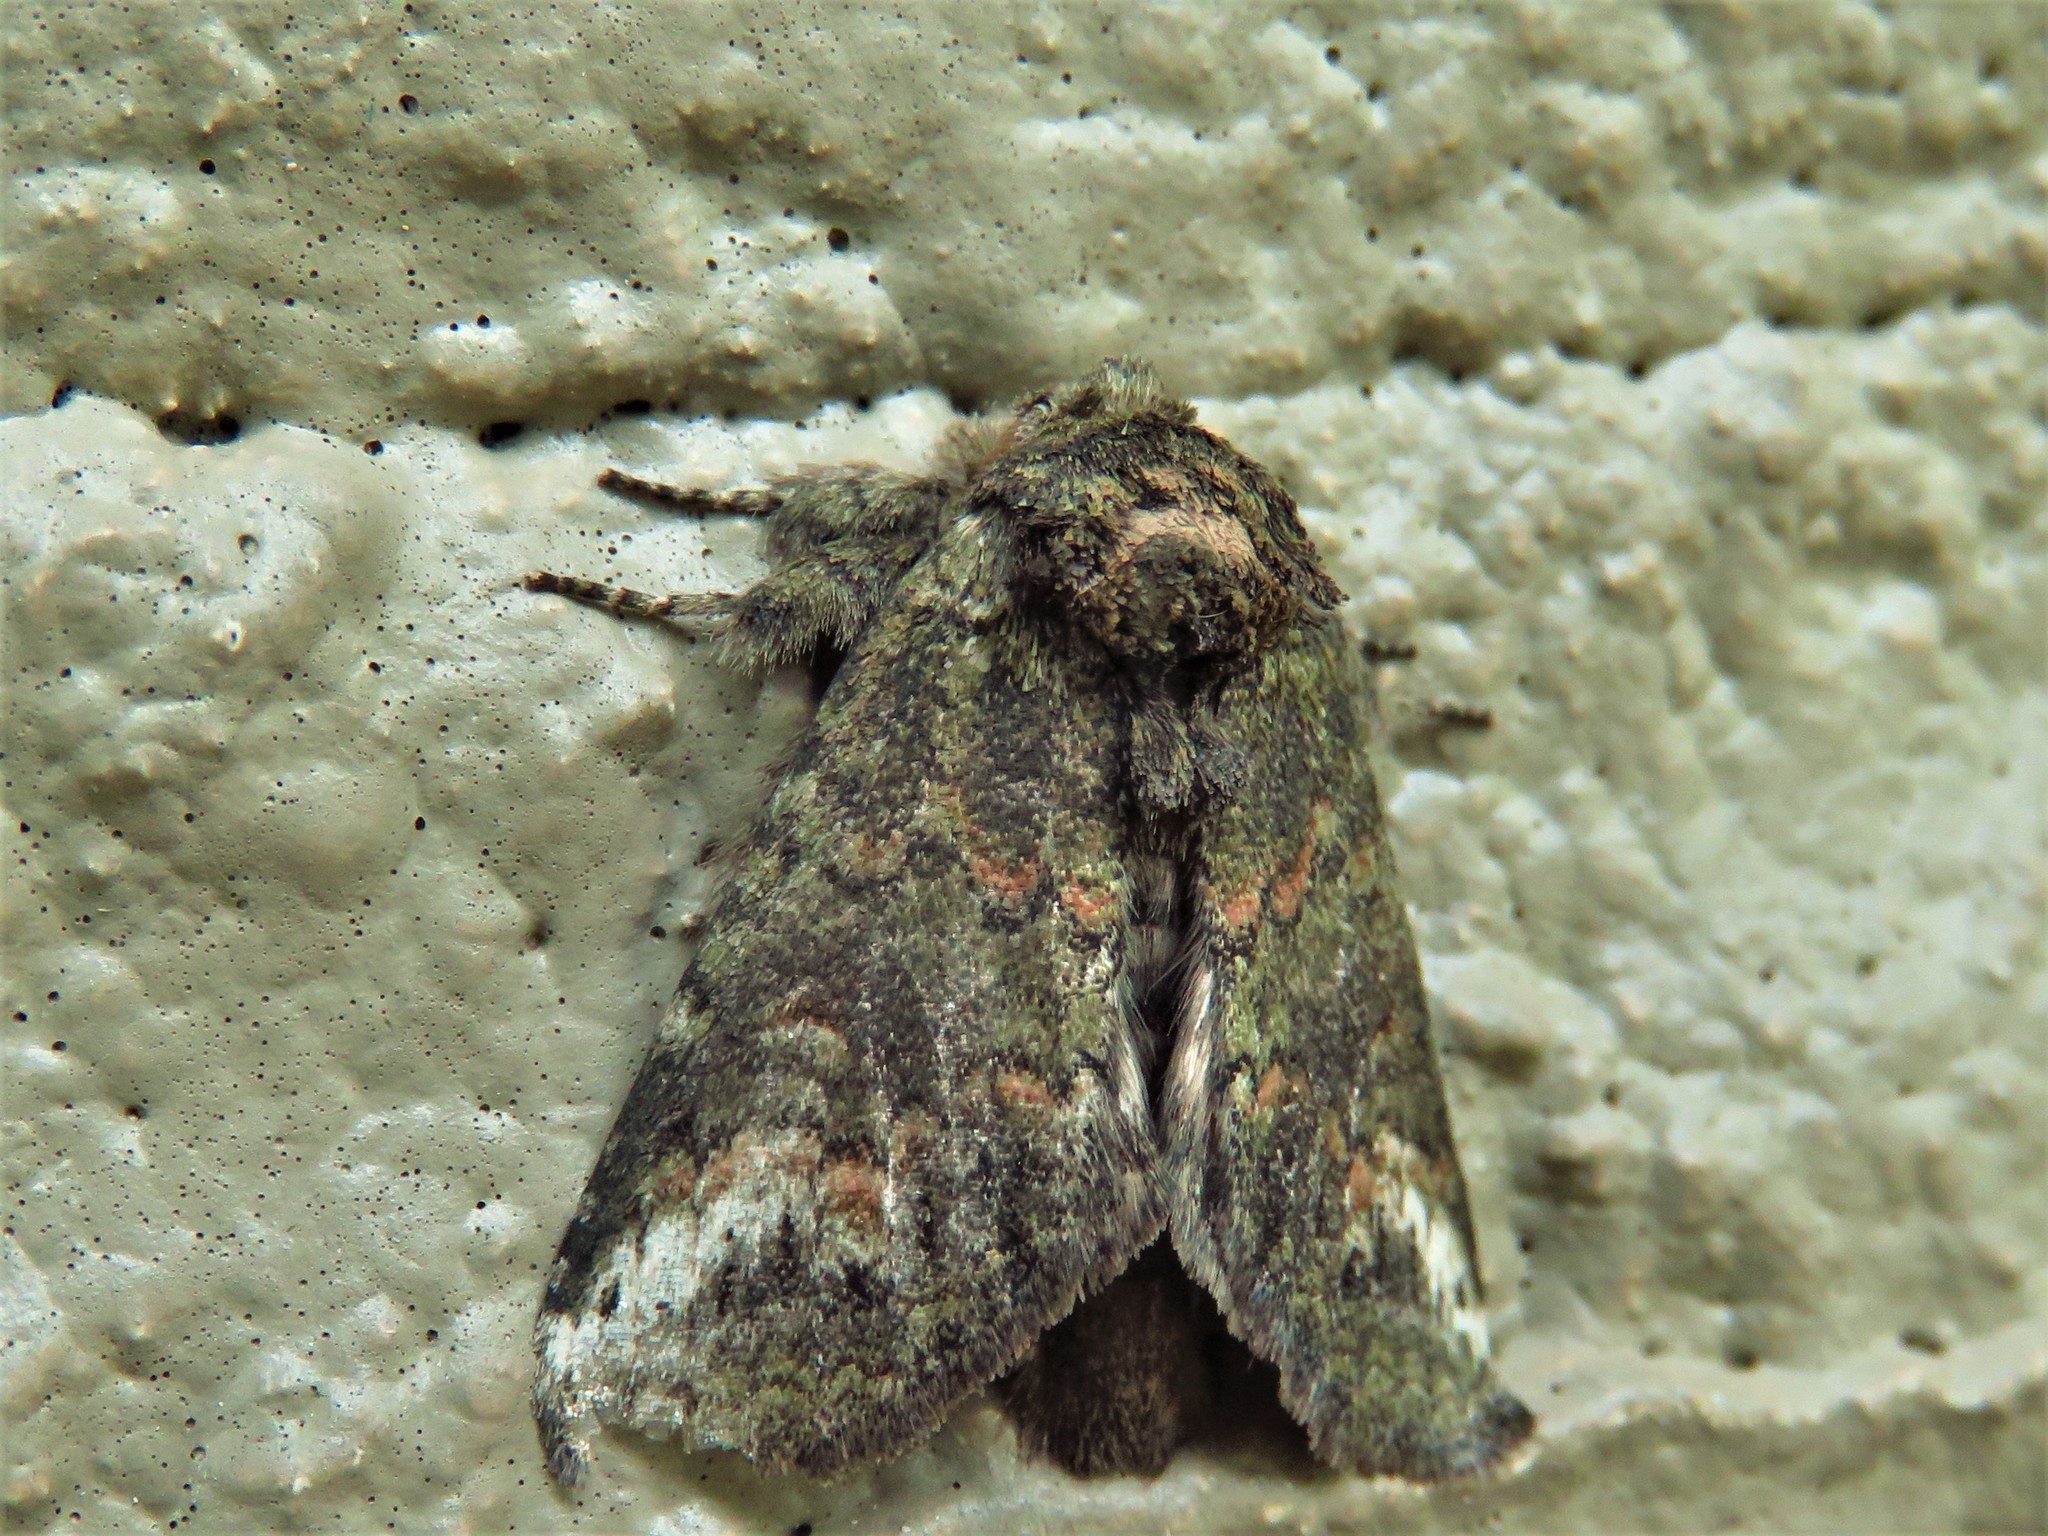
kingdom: Animalia
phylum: Arthropoda
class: Insecta
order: Lepidoptera
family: Notodontidae
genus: Rifargia
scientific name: Rifargia
